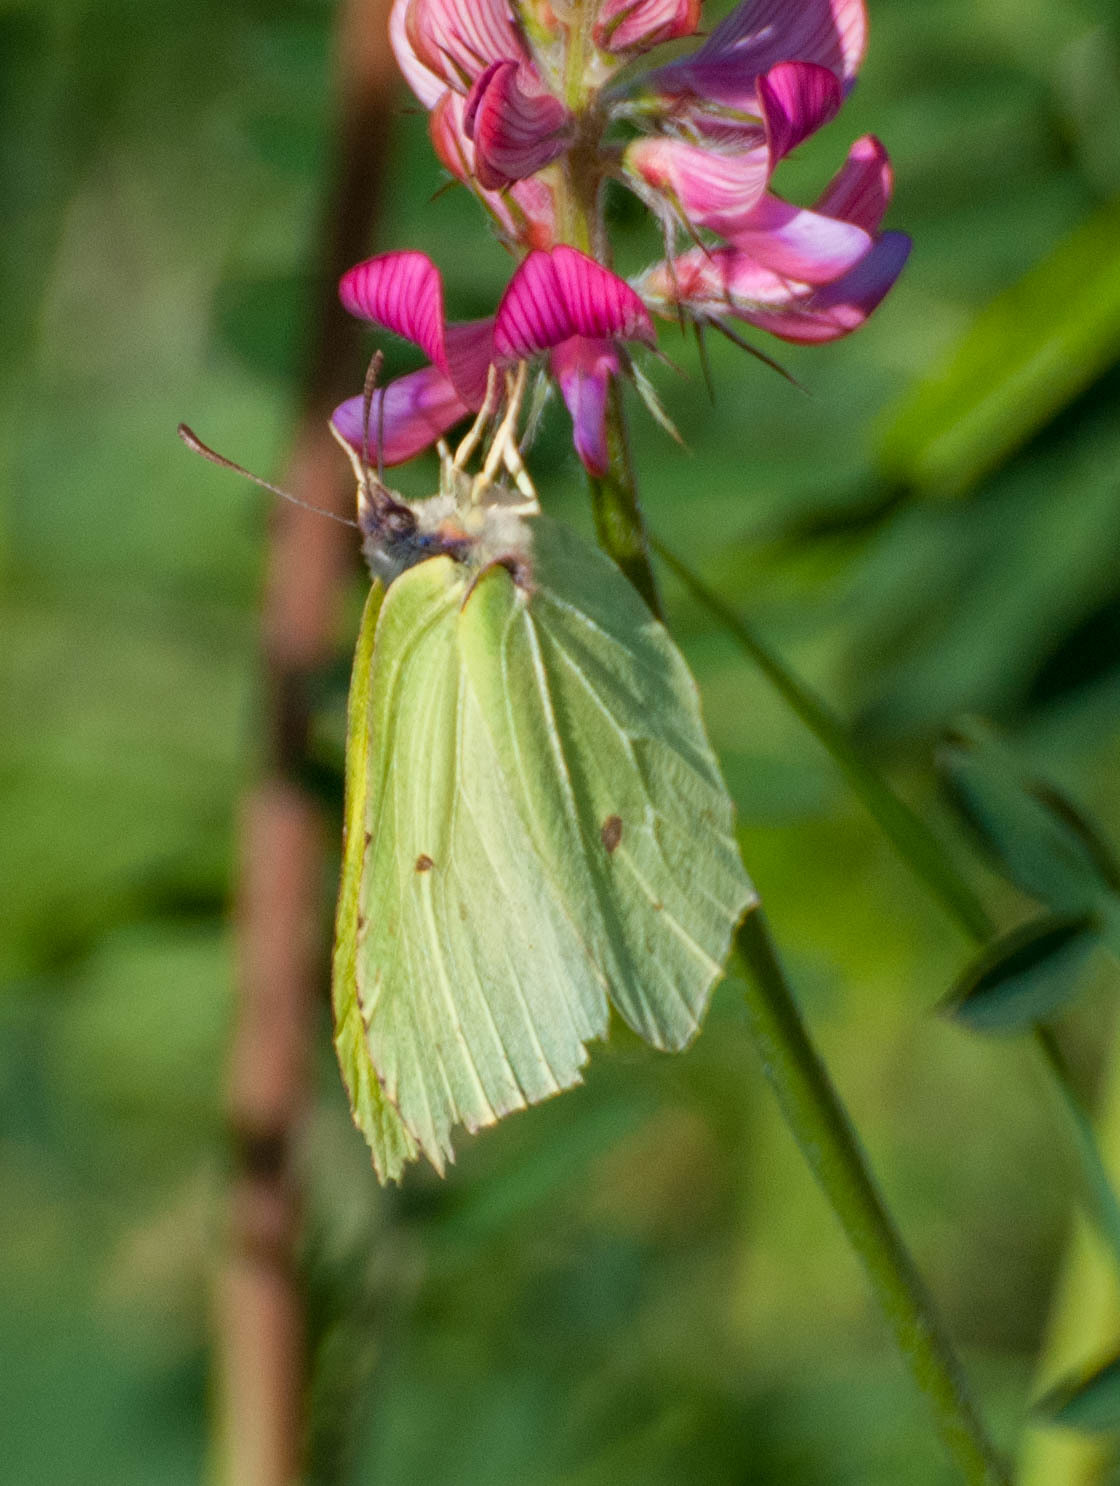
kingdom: Animalia
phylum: Arthropoda
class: Insecta
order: Lepidoptera
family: Pieridae
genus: Gonepteryx
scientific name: Gonepteryx rhamni
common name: Brimstone
